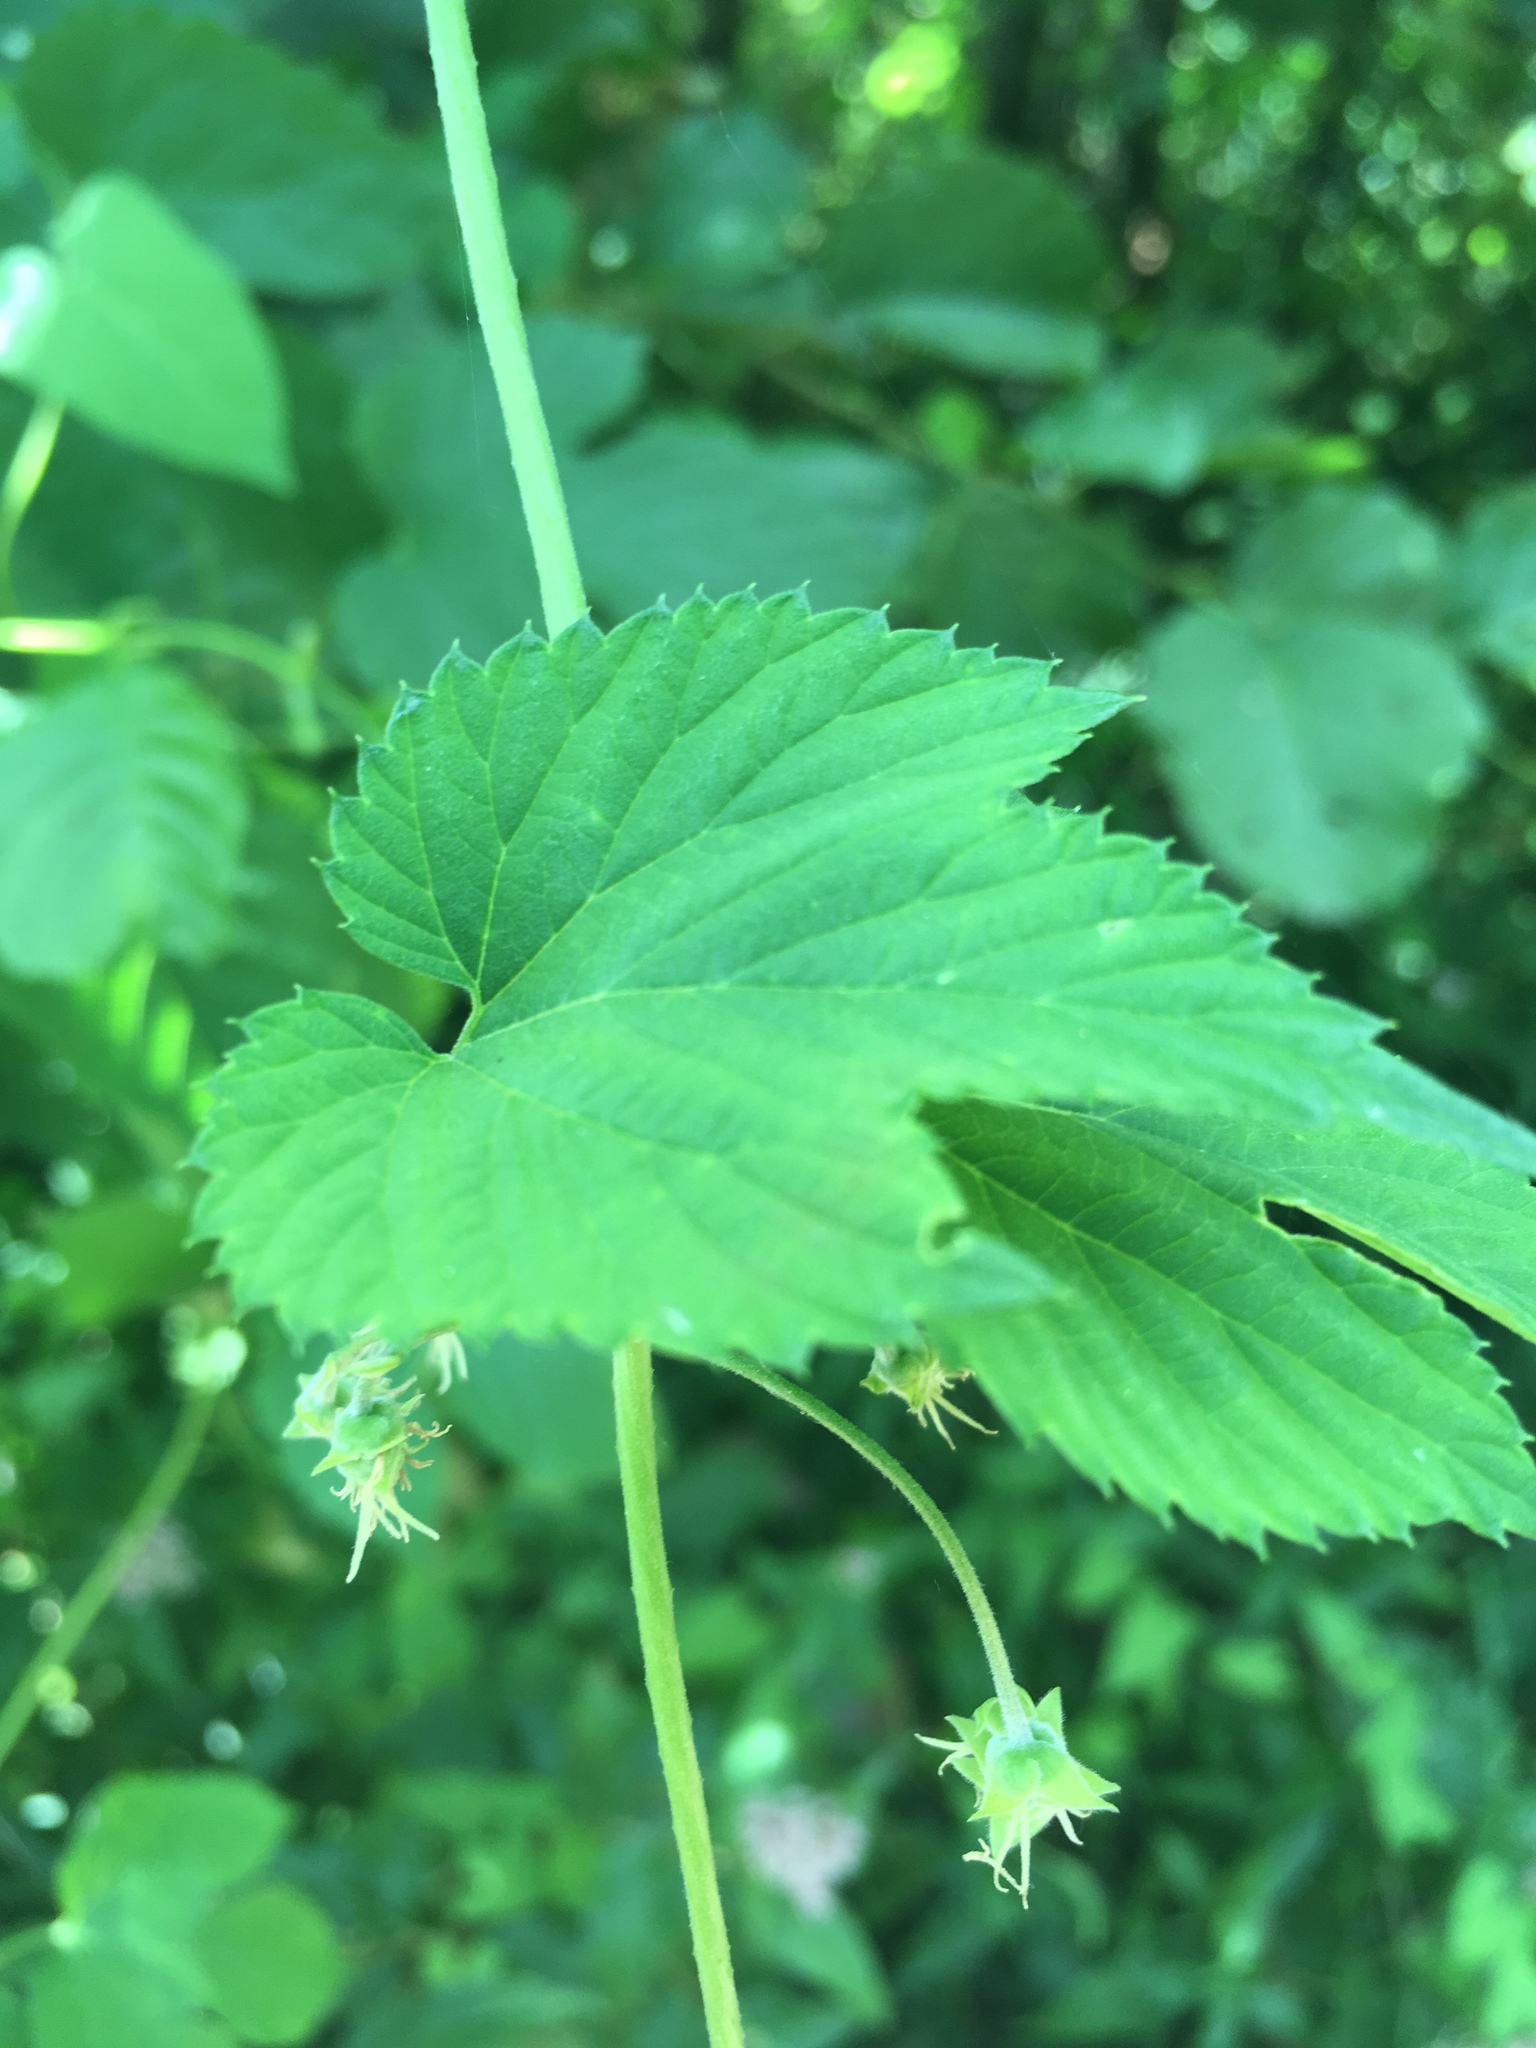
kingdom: Plantae
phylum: Tracheophyta
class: Magnoliopsida
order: Rosales
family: Cannabaceae
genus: Humulus
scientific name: Humulus lupulus
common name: Hop
